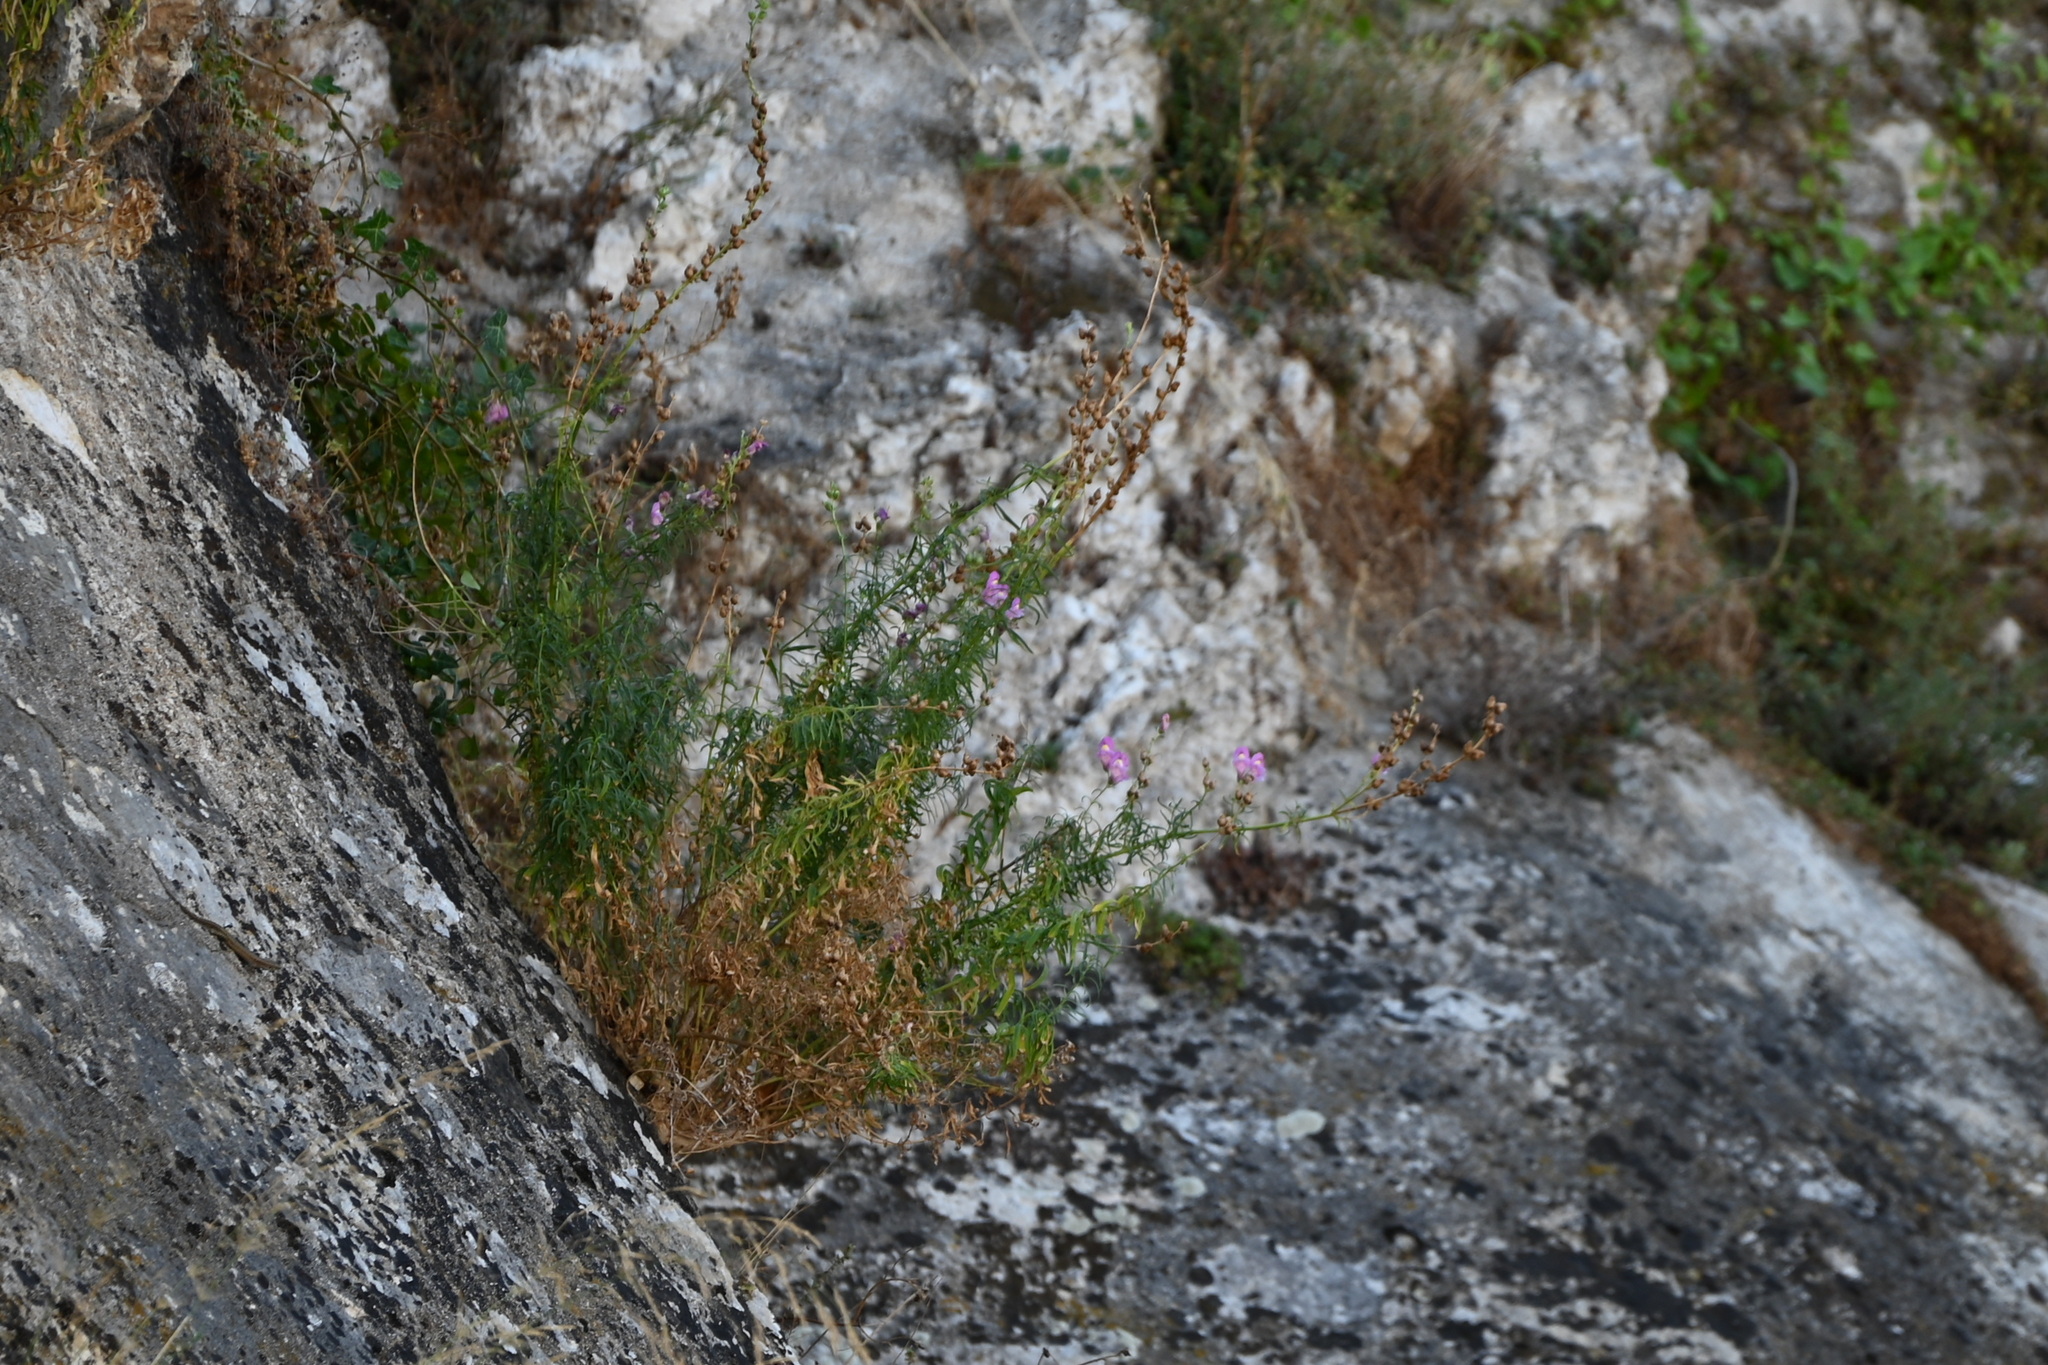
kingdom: Plantae
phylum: Tracheophyta
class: Magnoliopsida
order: Lamiales
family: Plantaginaceae
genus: Antirrhinum
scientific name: Antirrhinum tortuosum
